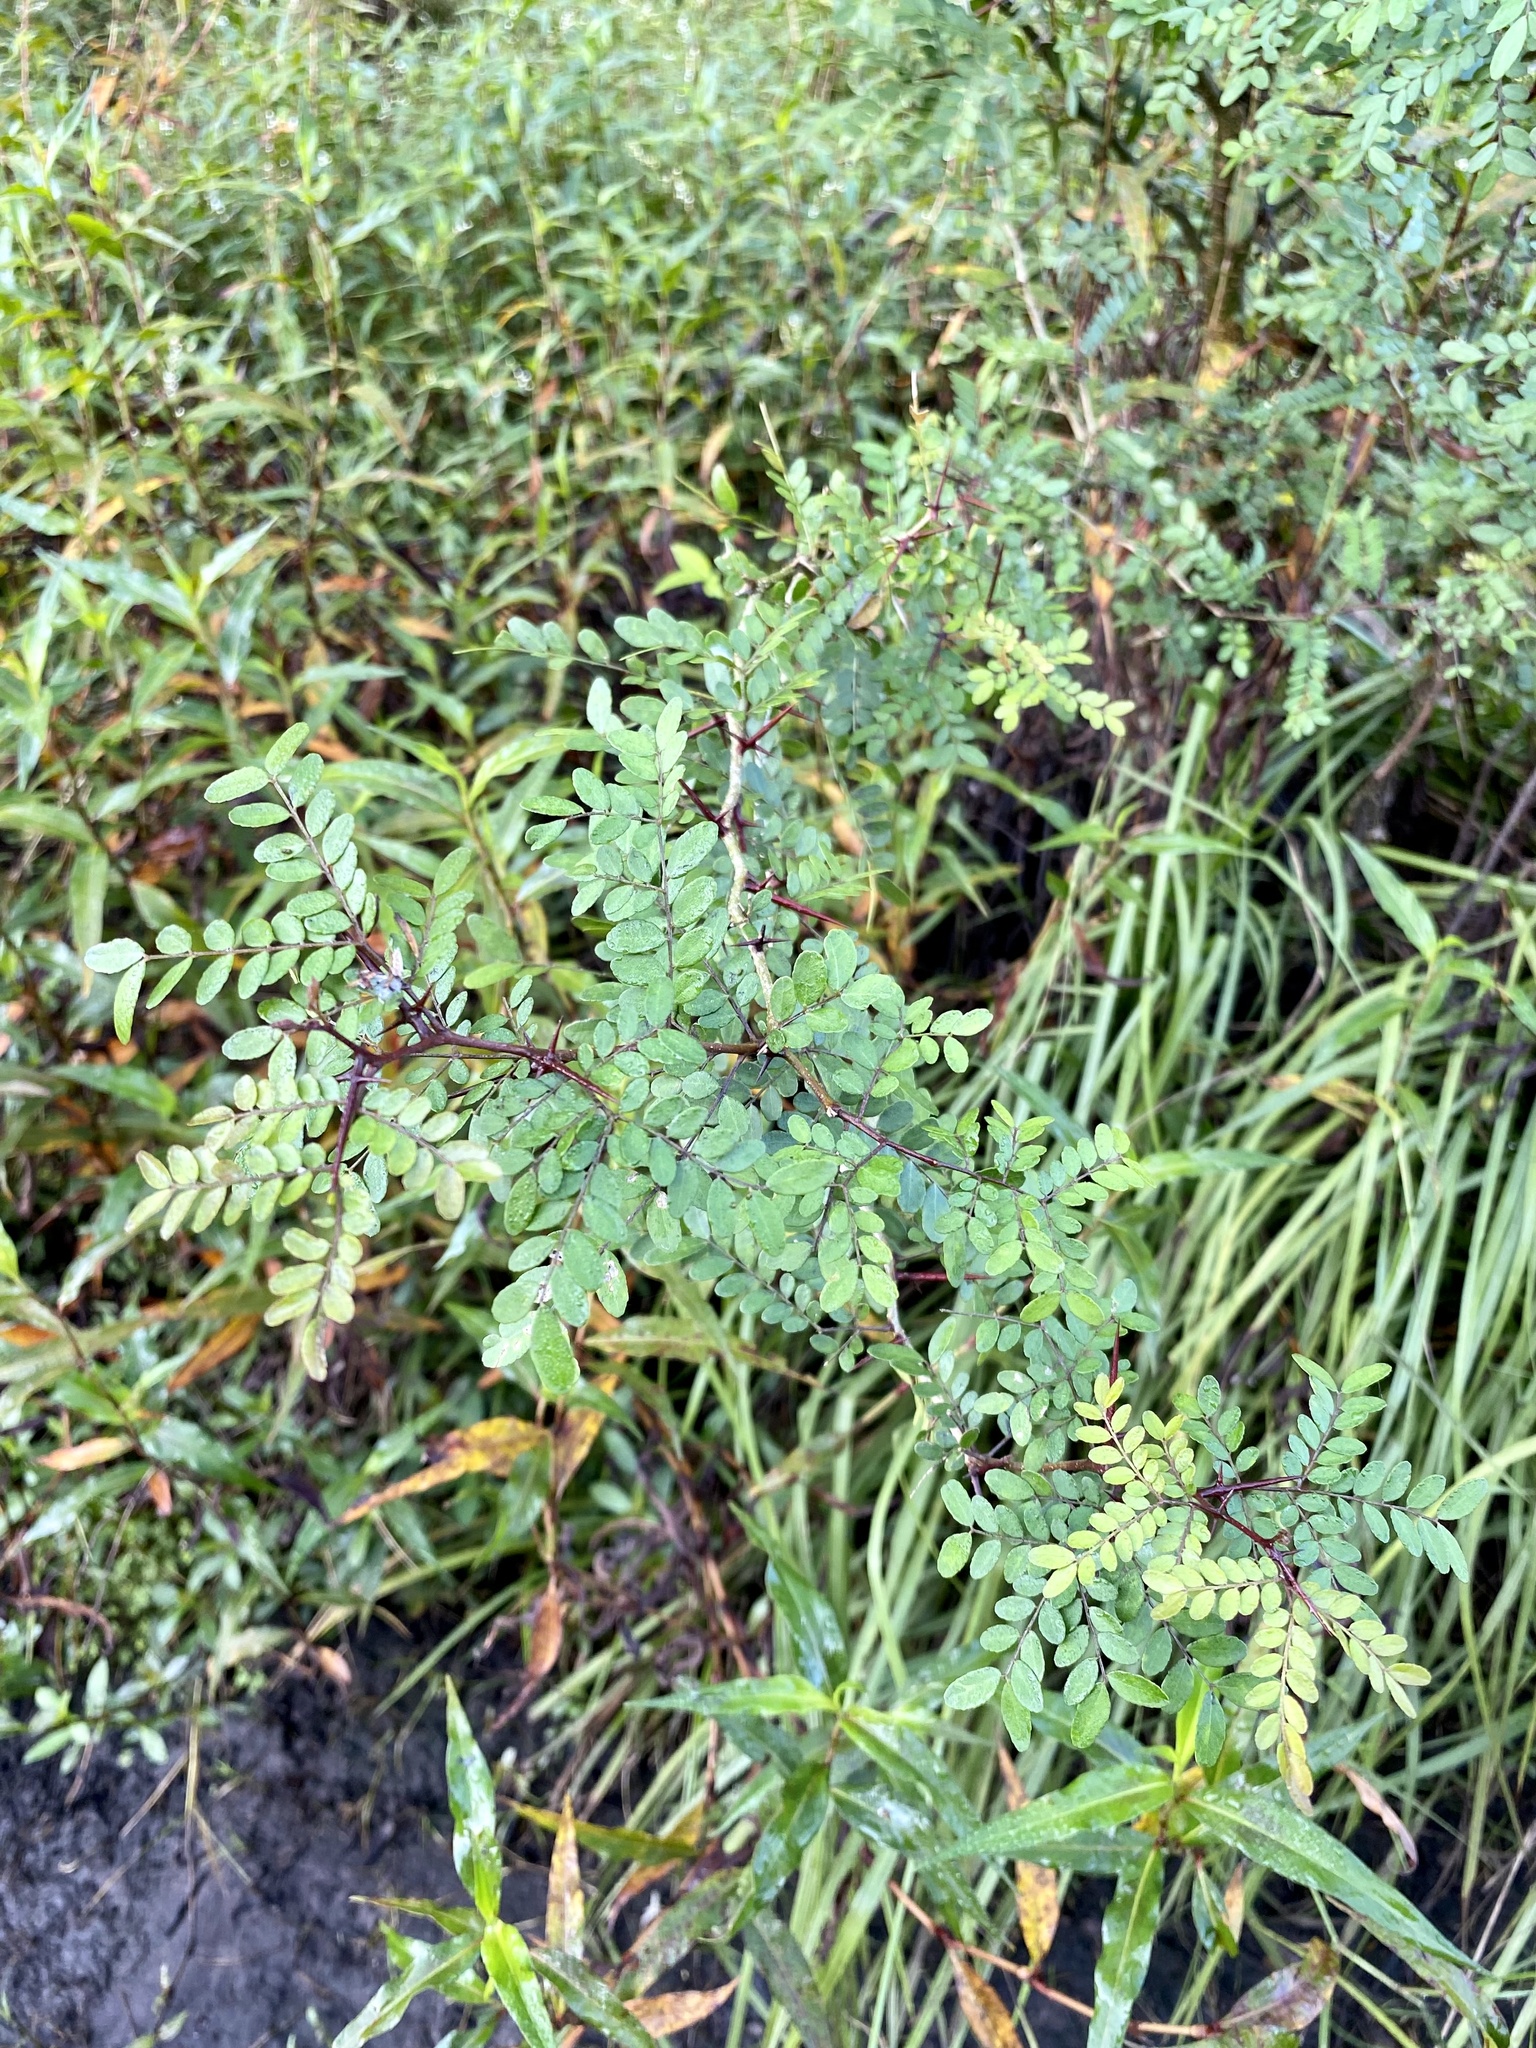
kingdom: Plantae
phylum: Tracheophyta
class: Magnoliopsida
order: Fabales
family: Fabaceae
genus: Gleditsia
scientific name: Gleditsia aquatica
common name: Swamp-locust
